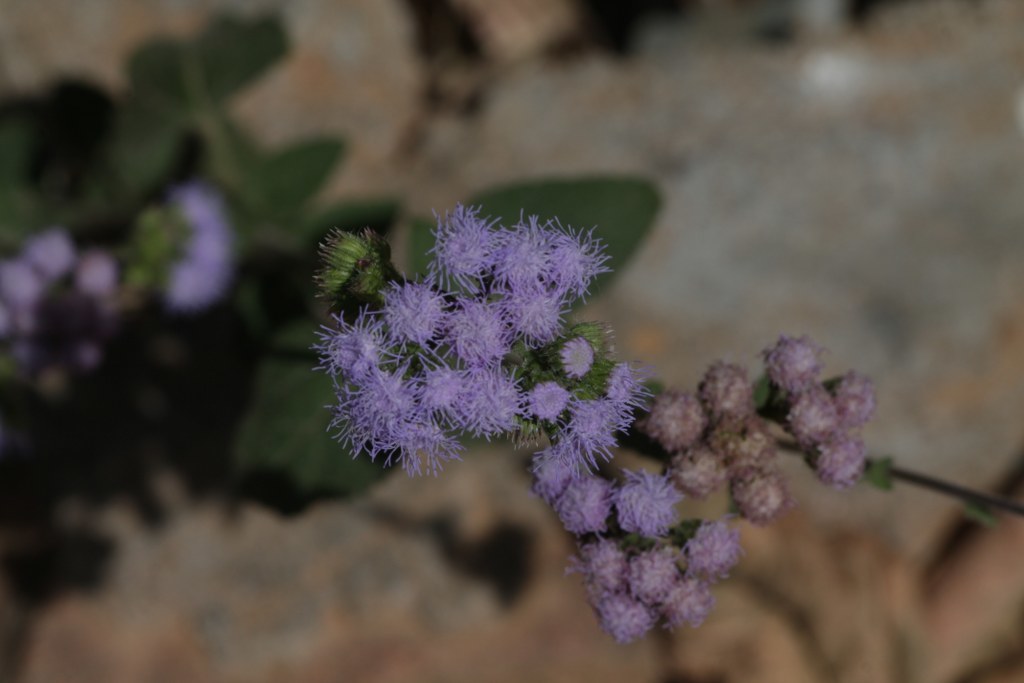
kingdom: Plantae
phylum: Tracheophyta
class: Magnoliopsida
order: Asterales
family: Asteraceae
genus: Ageratum
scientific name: Ageratum houstonianum
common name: Bluemink
